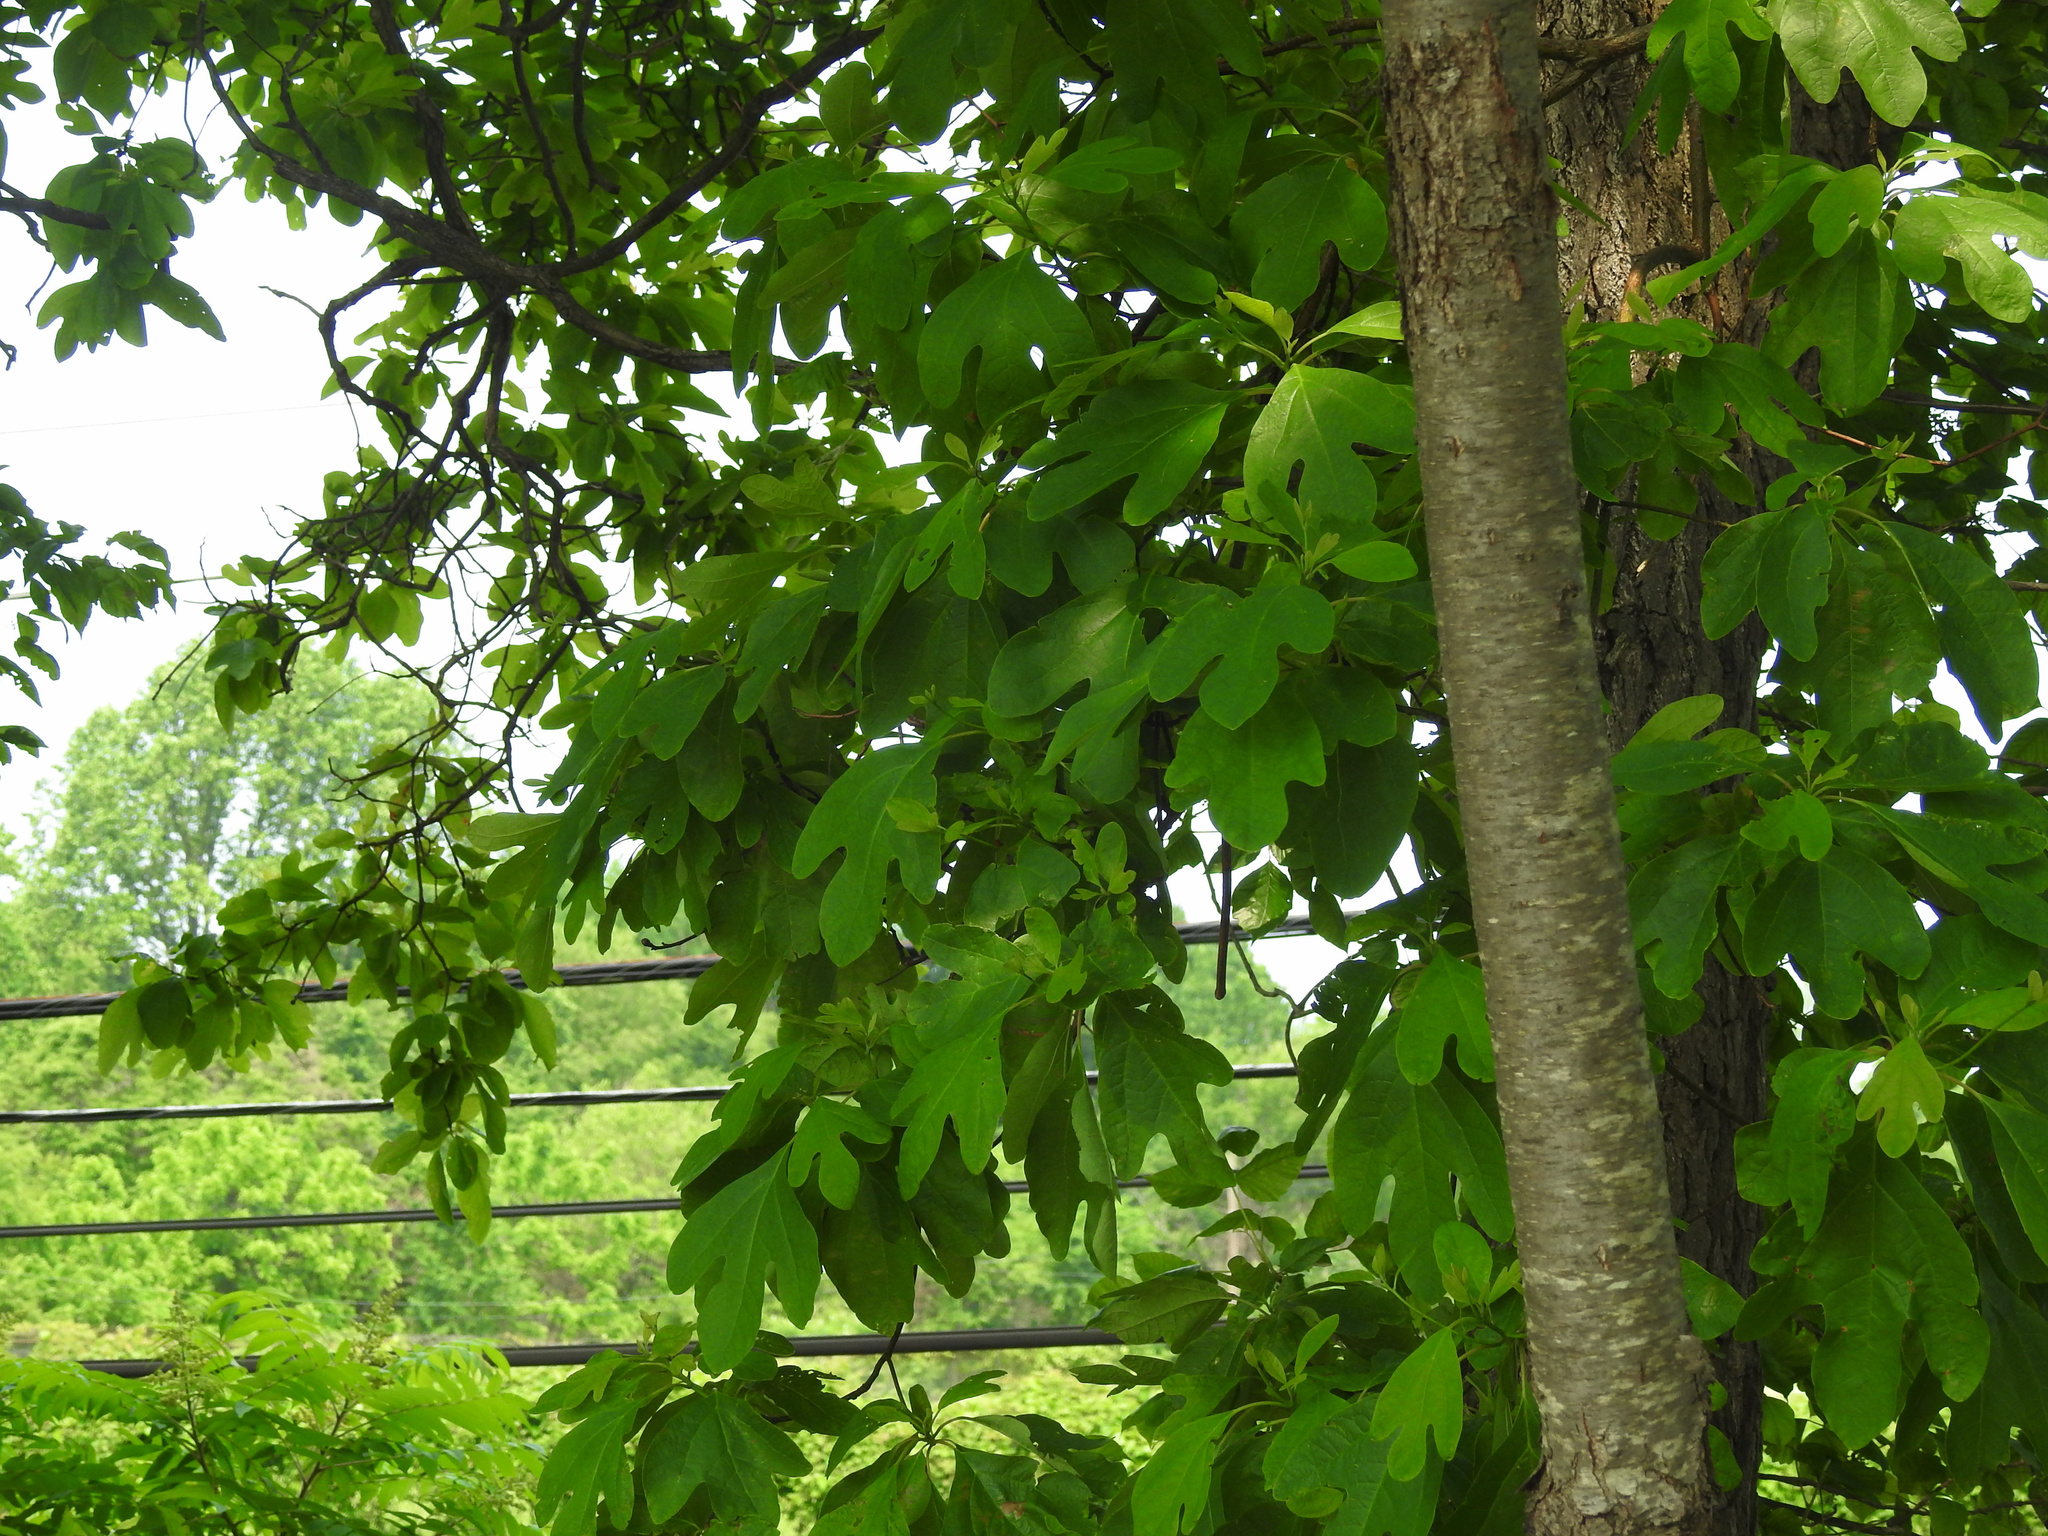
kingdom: Plantae
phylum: Tracheophyta
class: Magnoliopsida
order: Laurales
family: Lauraceae
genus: Sassafras
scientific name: Sassafras albidum
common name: Sassafras
